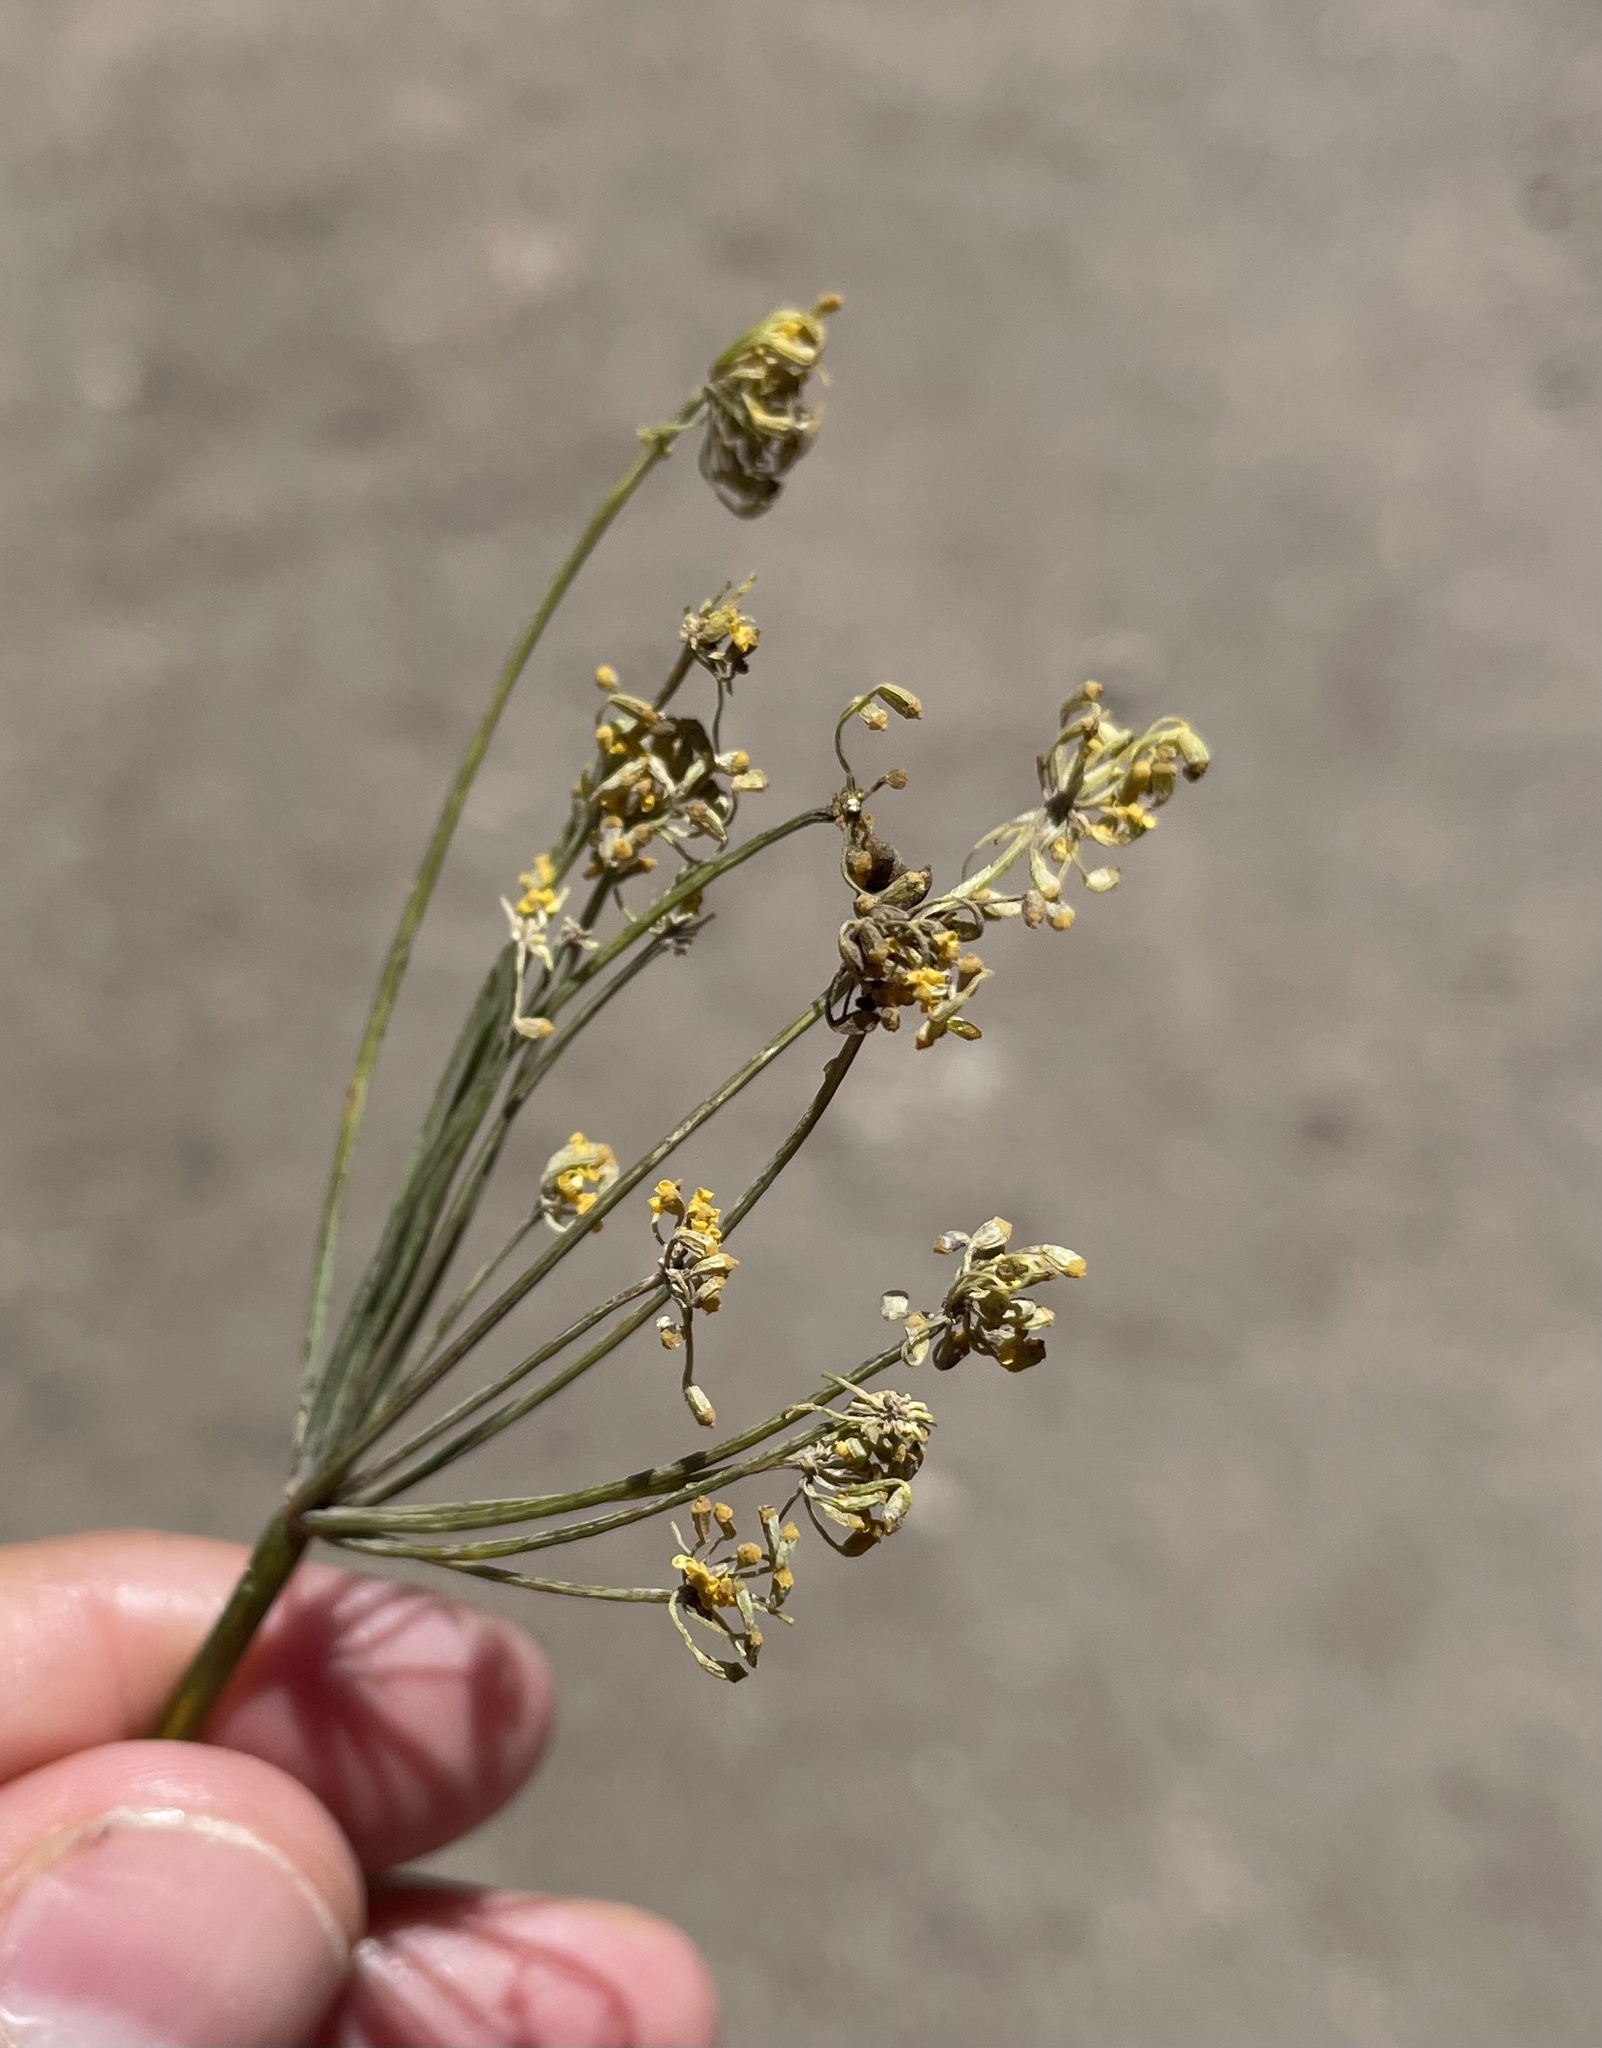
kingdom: Plantae
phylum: Tracheophyta
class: Magnoliopsida
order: Apiales
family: Apiaceae
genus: Foeniculum
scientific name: Foeniculum vulgare
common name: Fennel
